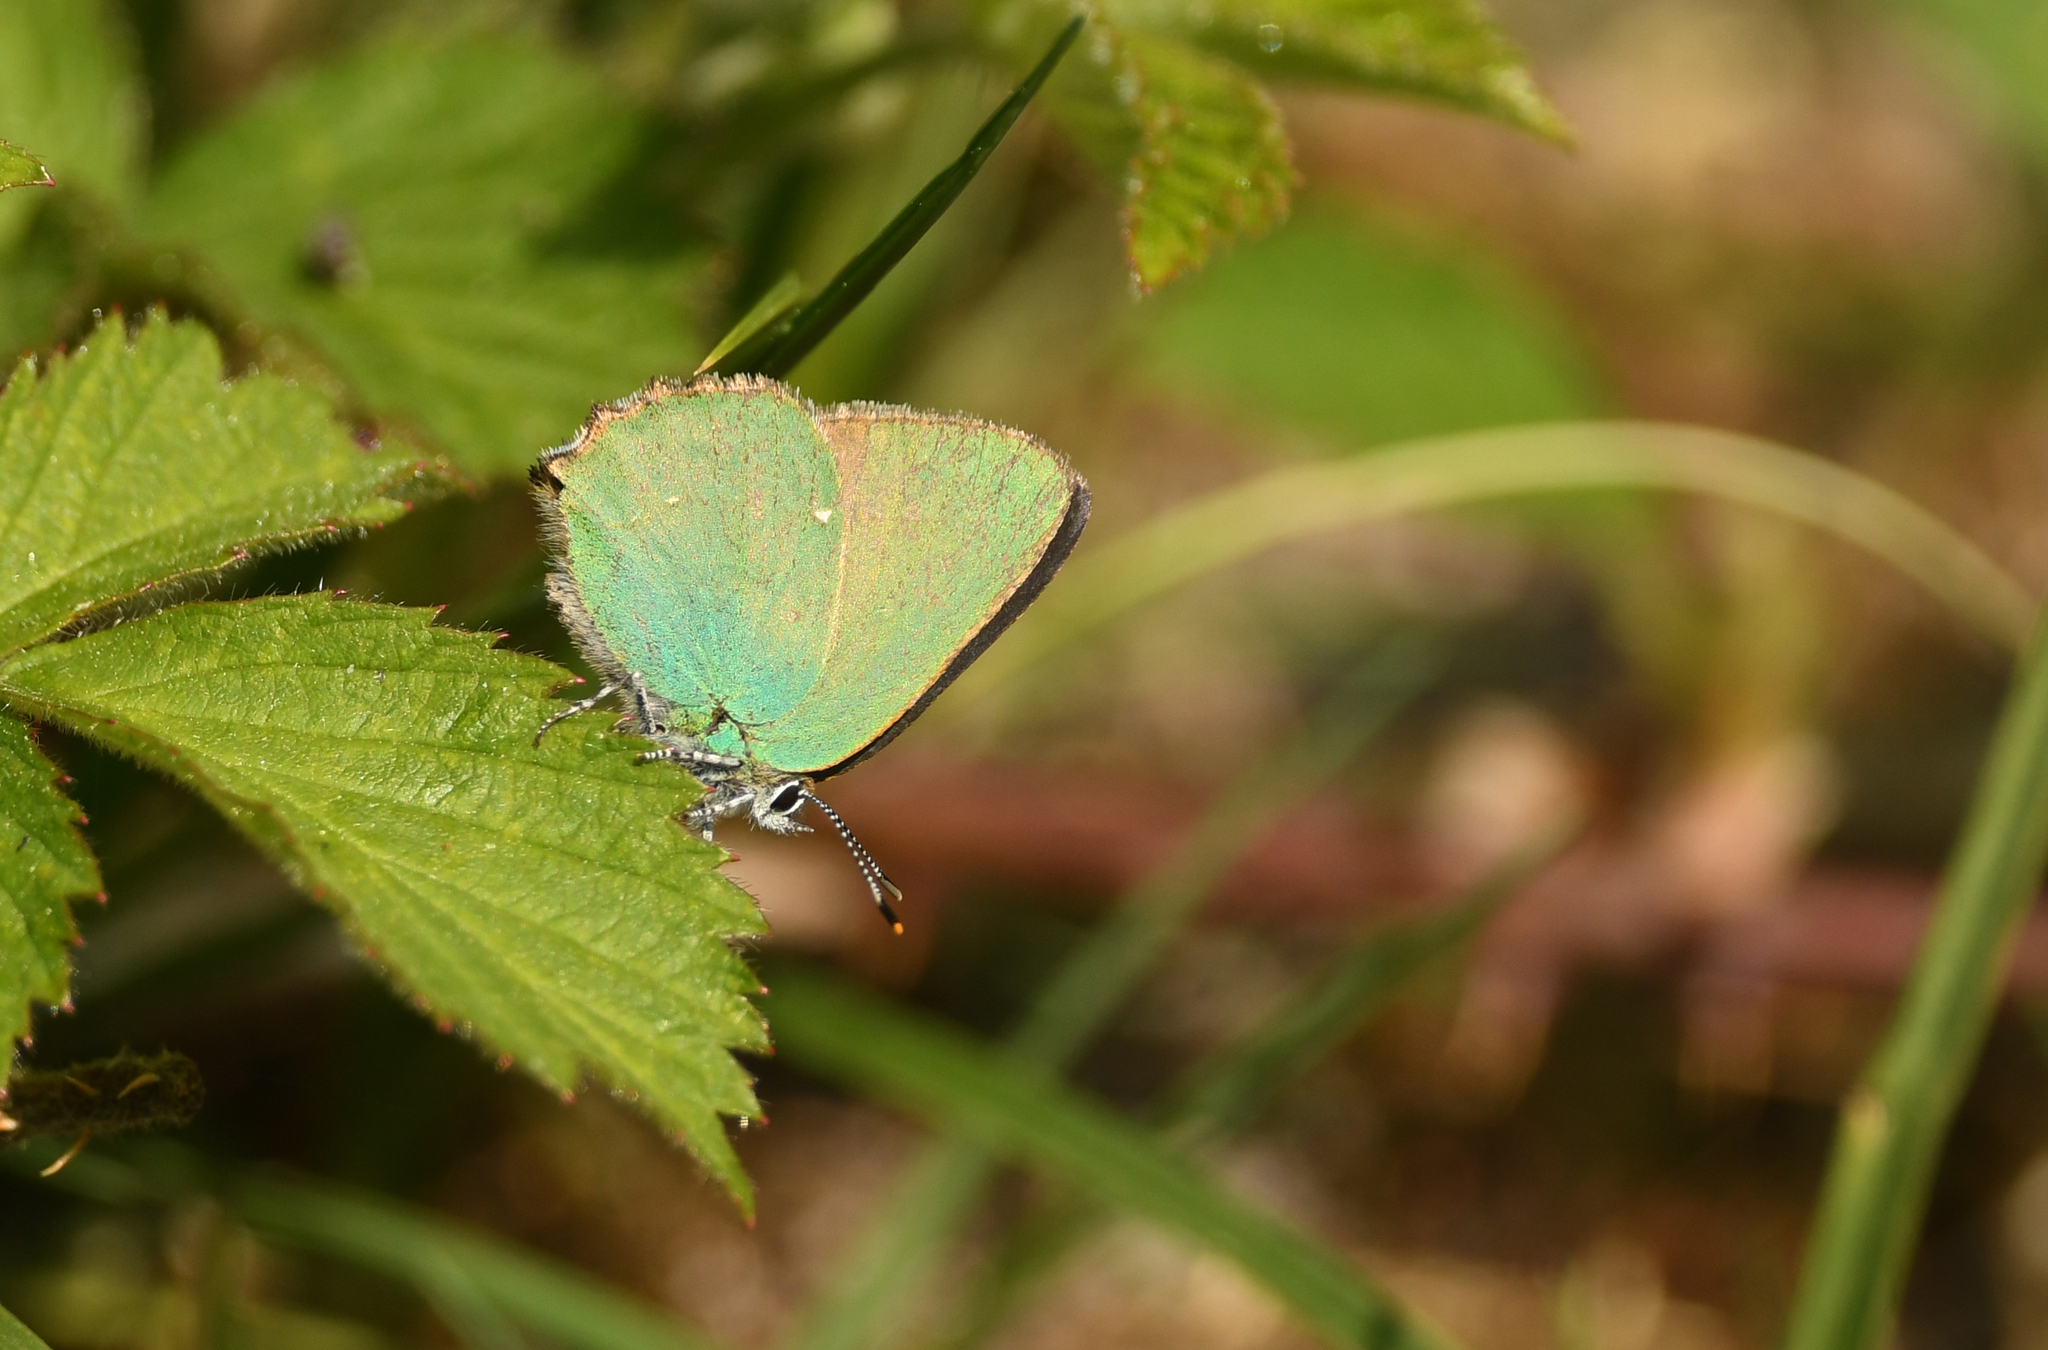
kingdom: Animalia
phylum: Arthropoda
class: Insecta
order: Lepidoptera
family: Lycaenidae
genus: Callophrys
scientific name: Callophrys rubi
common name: Green hairstreak
